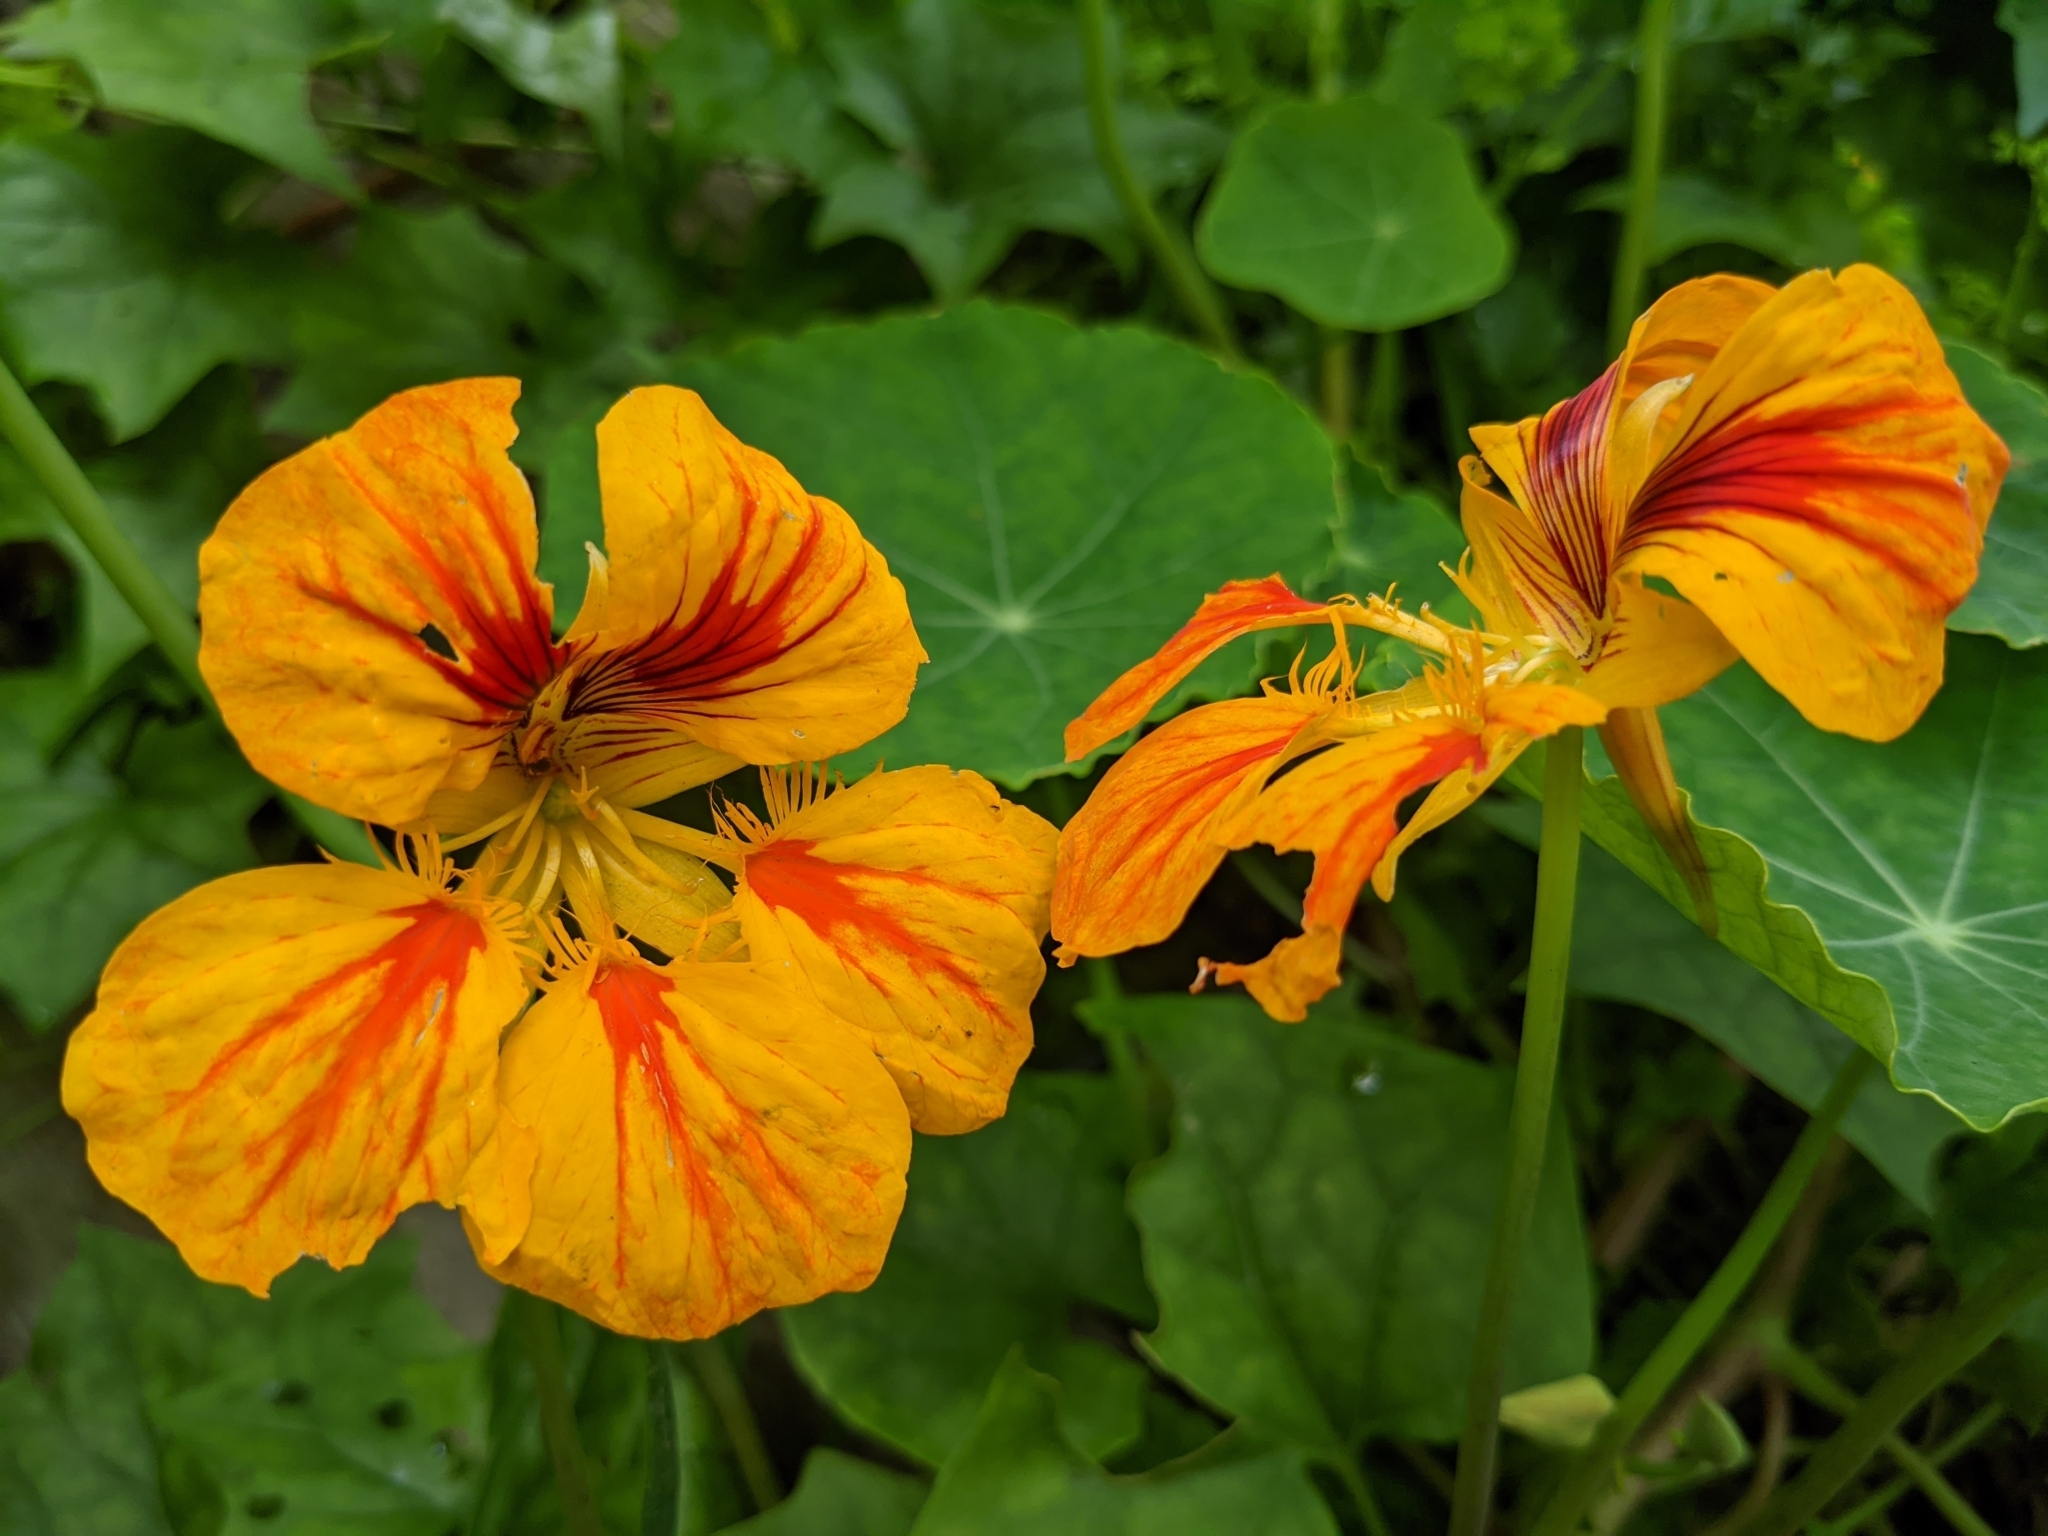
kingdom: Plantae
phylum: Tracheophyta
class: Magnoliopsida
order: Brassicales
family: Tropaeolaceae
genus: Tropaeolum
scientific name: Tropaeolum majus
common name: Nasturtium
